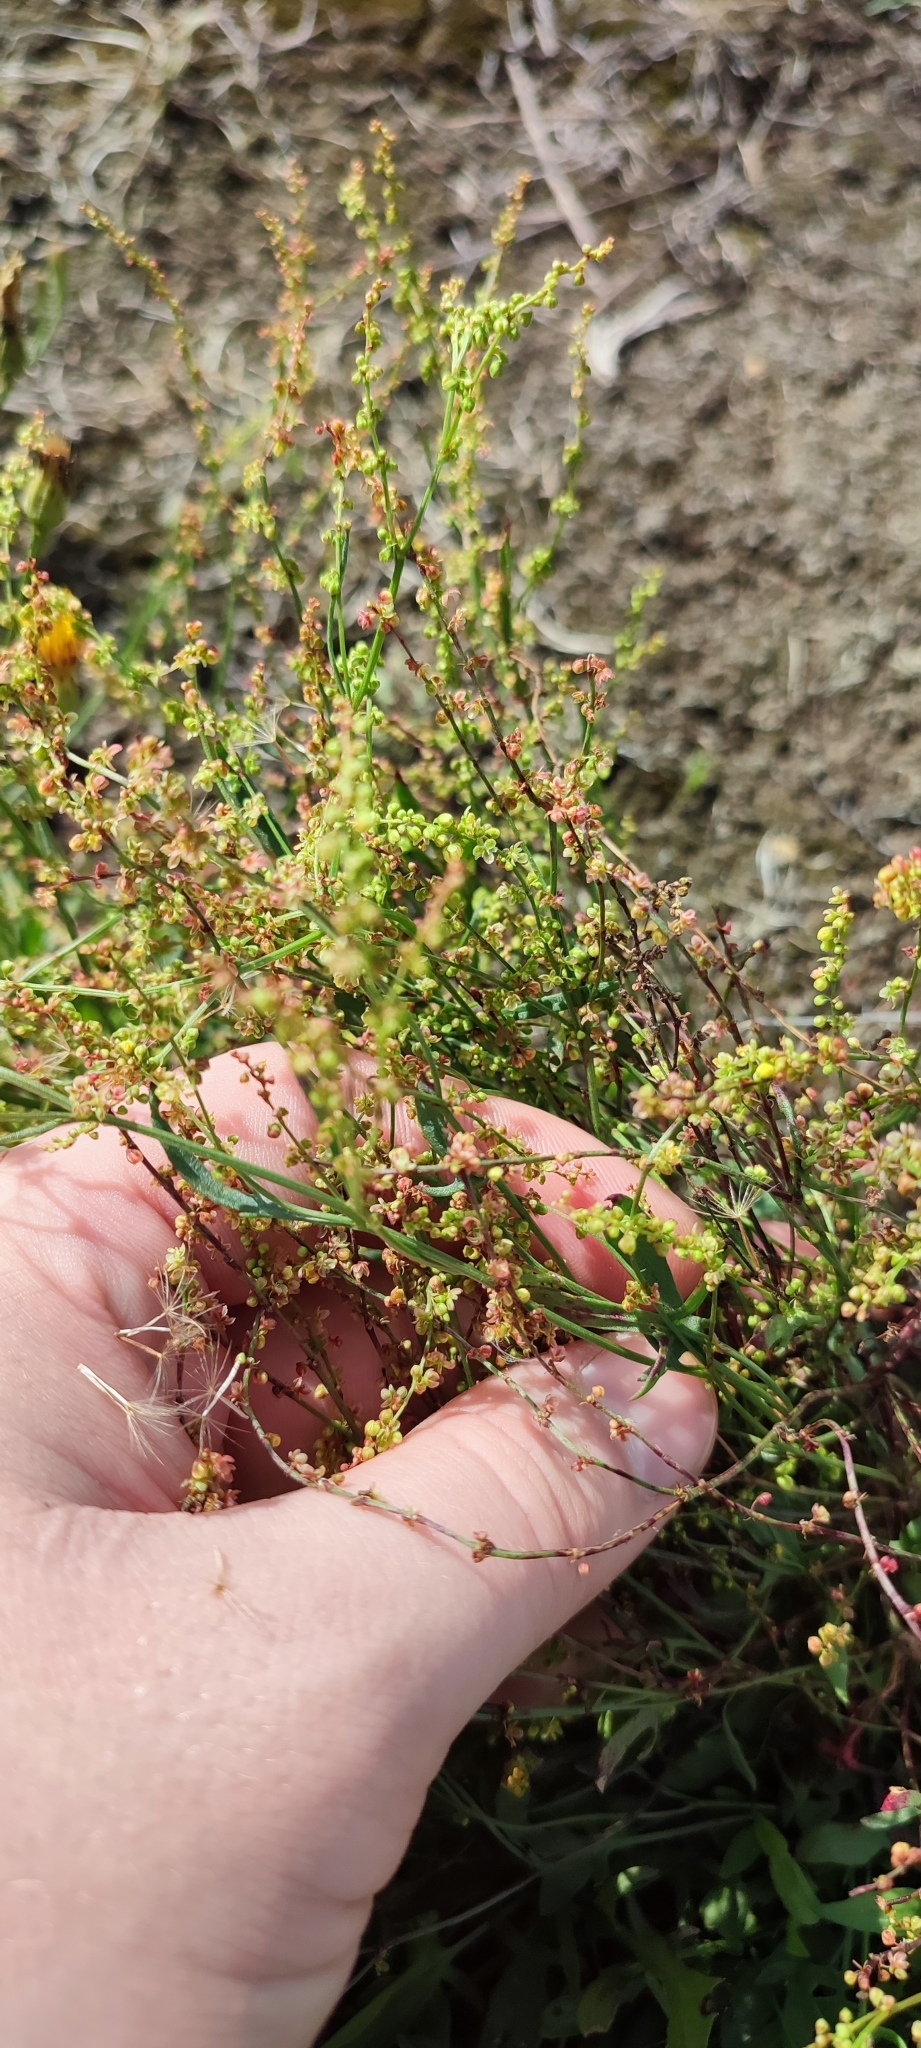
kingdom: Plantae
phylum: Tracheophyta
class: Magnoliopsida
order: Caryophyllales
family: Polygonaceae
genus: Rumex
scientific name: Rumex acetosella
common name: Common sheep sorrel
